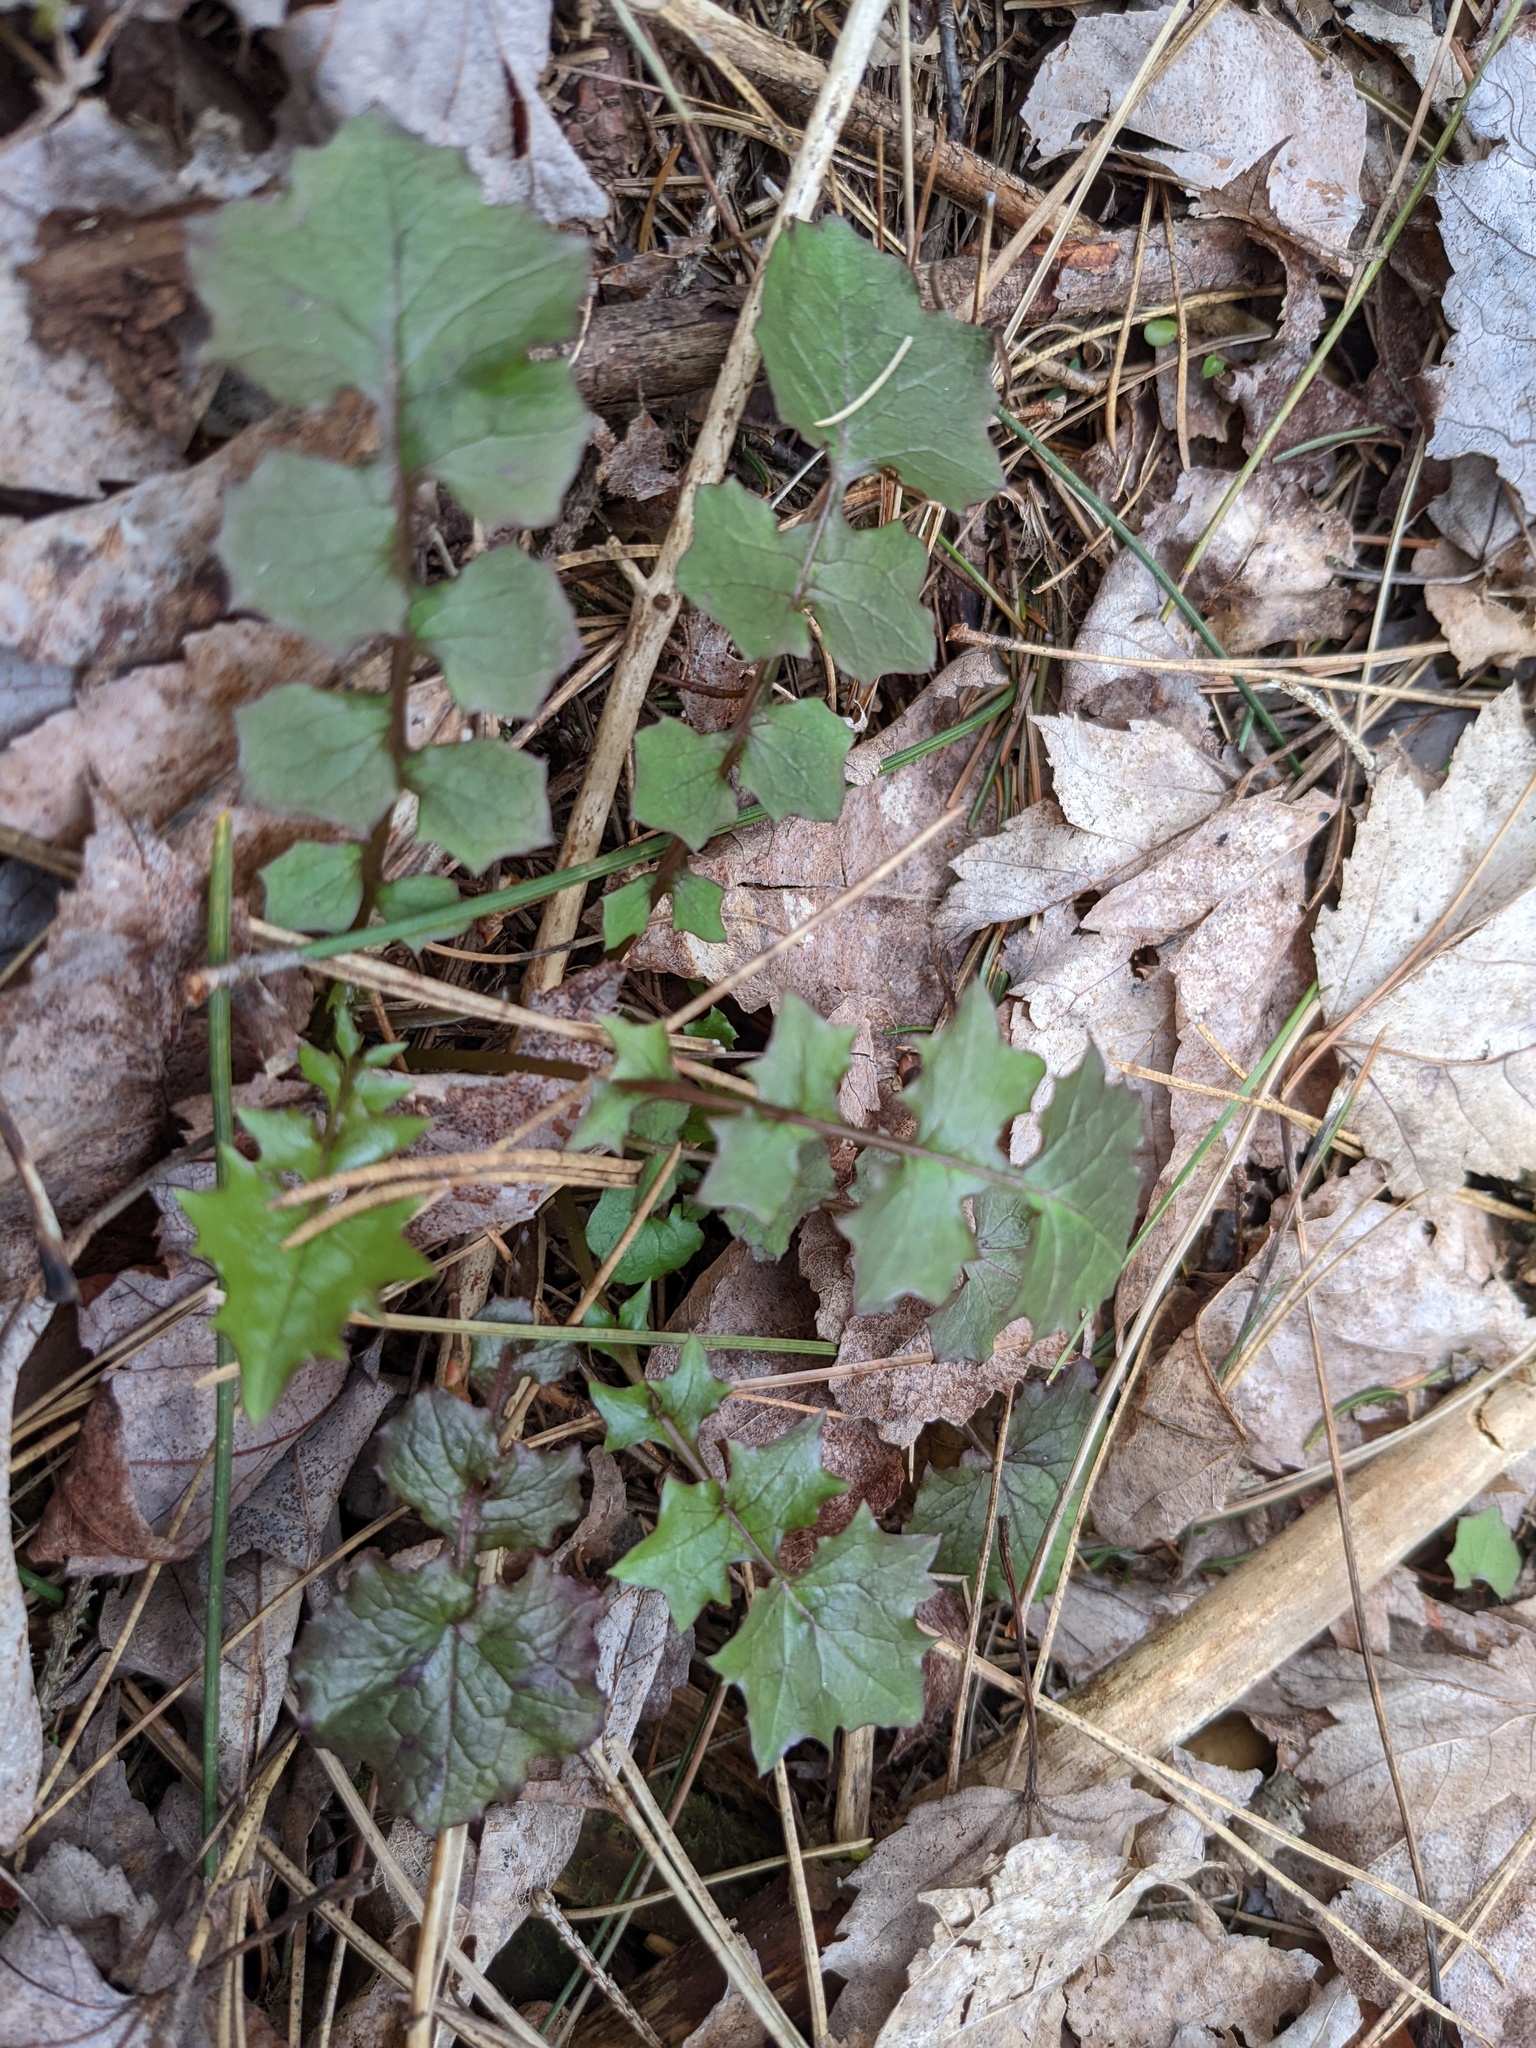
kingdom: Plantae
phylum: Tracheophyta
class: Magnoliopsida
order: Asterales
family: Asteraceae
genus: Mycelis
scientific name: Mycelis muralis
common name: Wall lettuce
